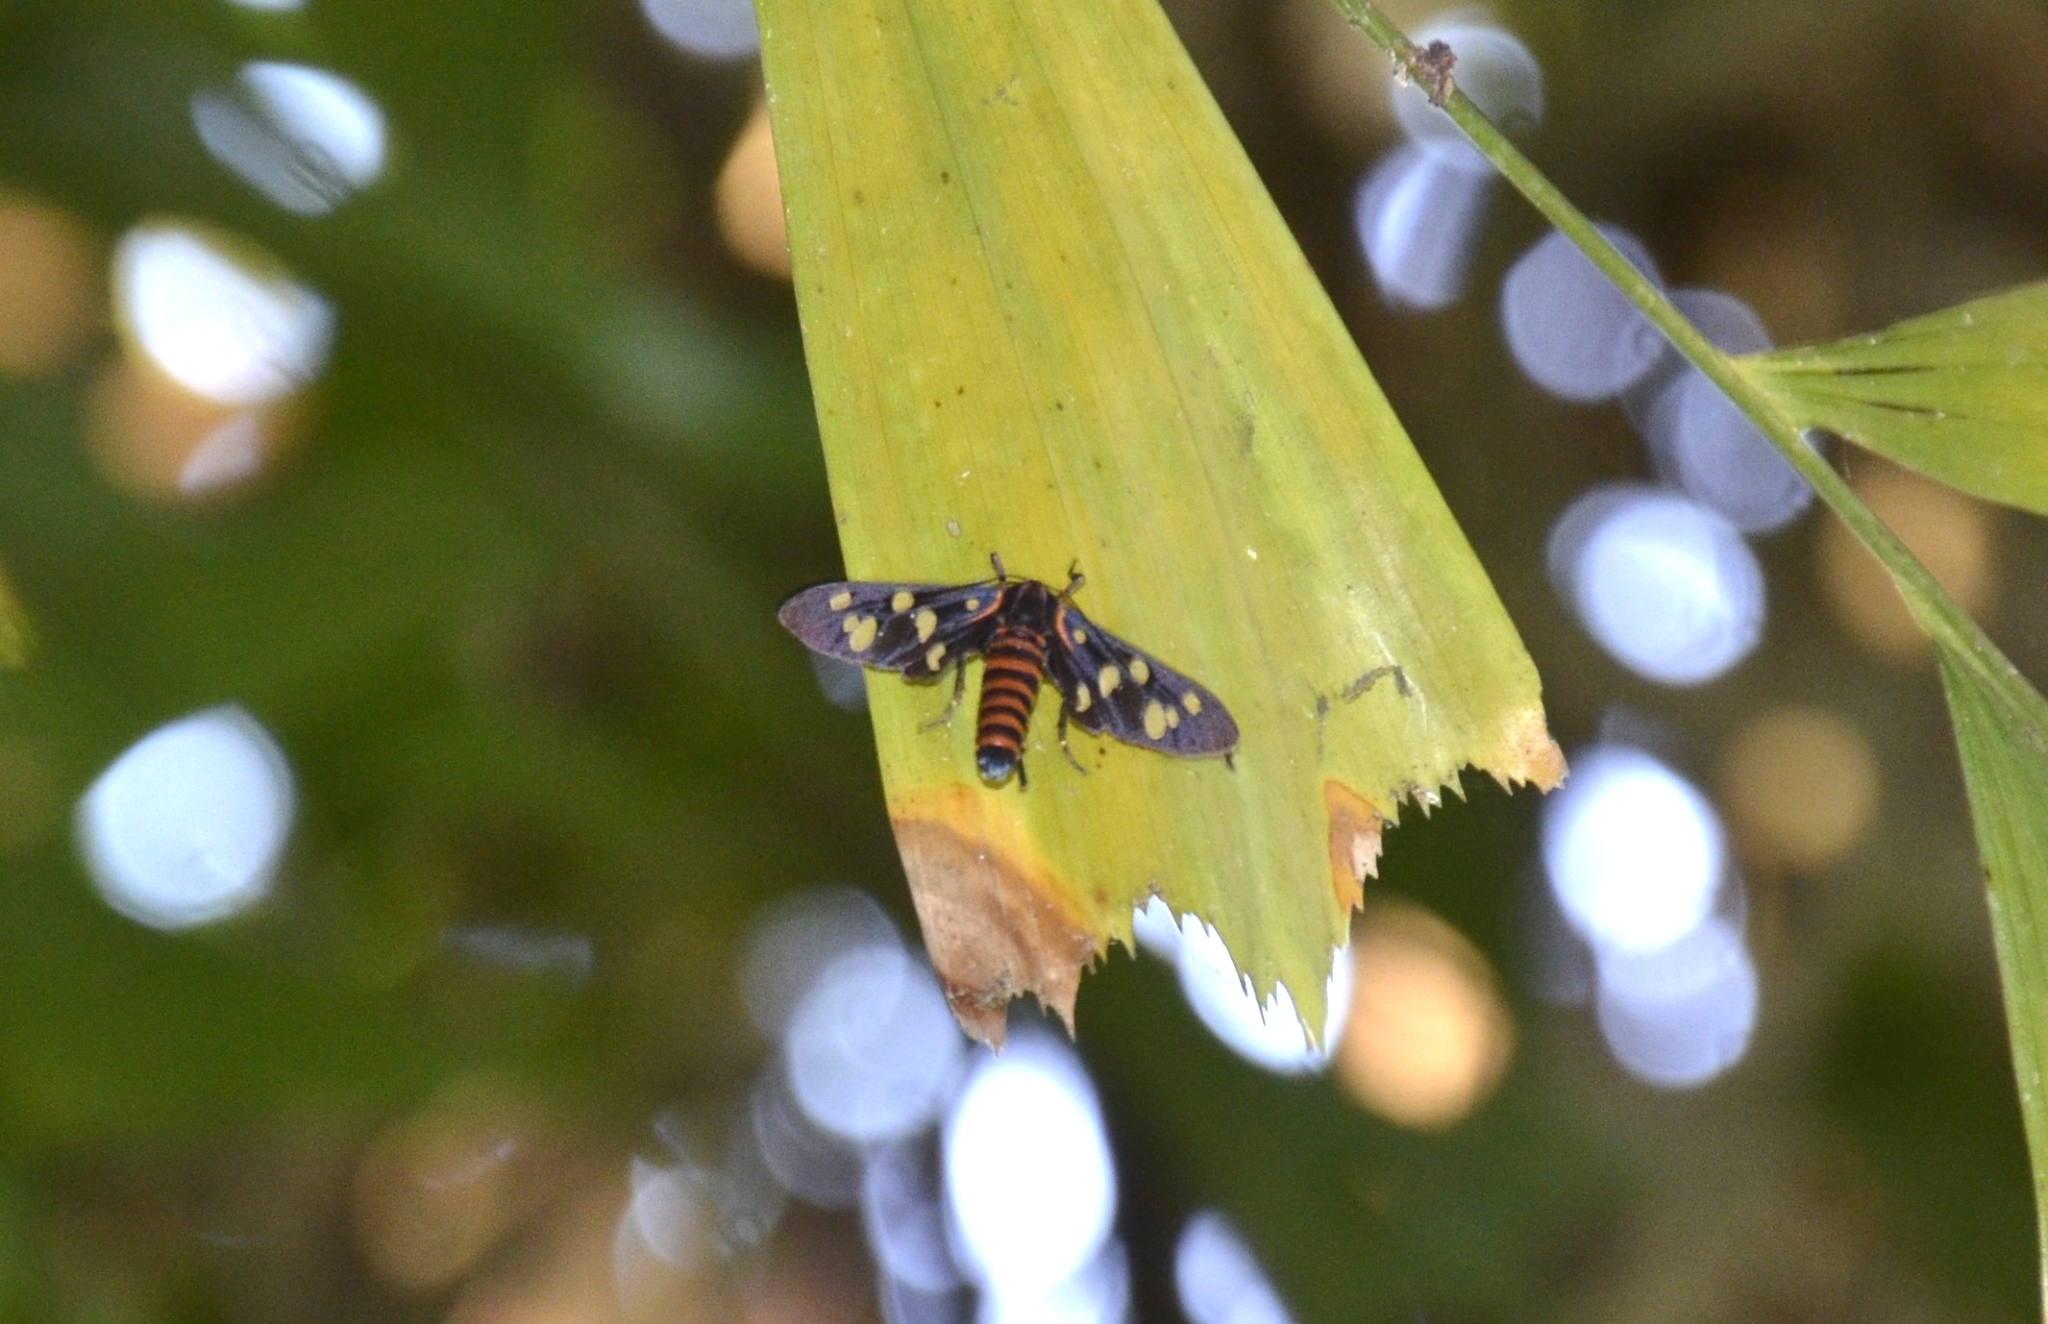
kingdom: Animalia
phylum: Arthropoda
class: Insecta
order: Lepidoptera
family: Erebidae
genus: Amata
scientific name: Amata passalis
